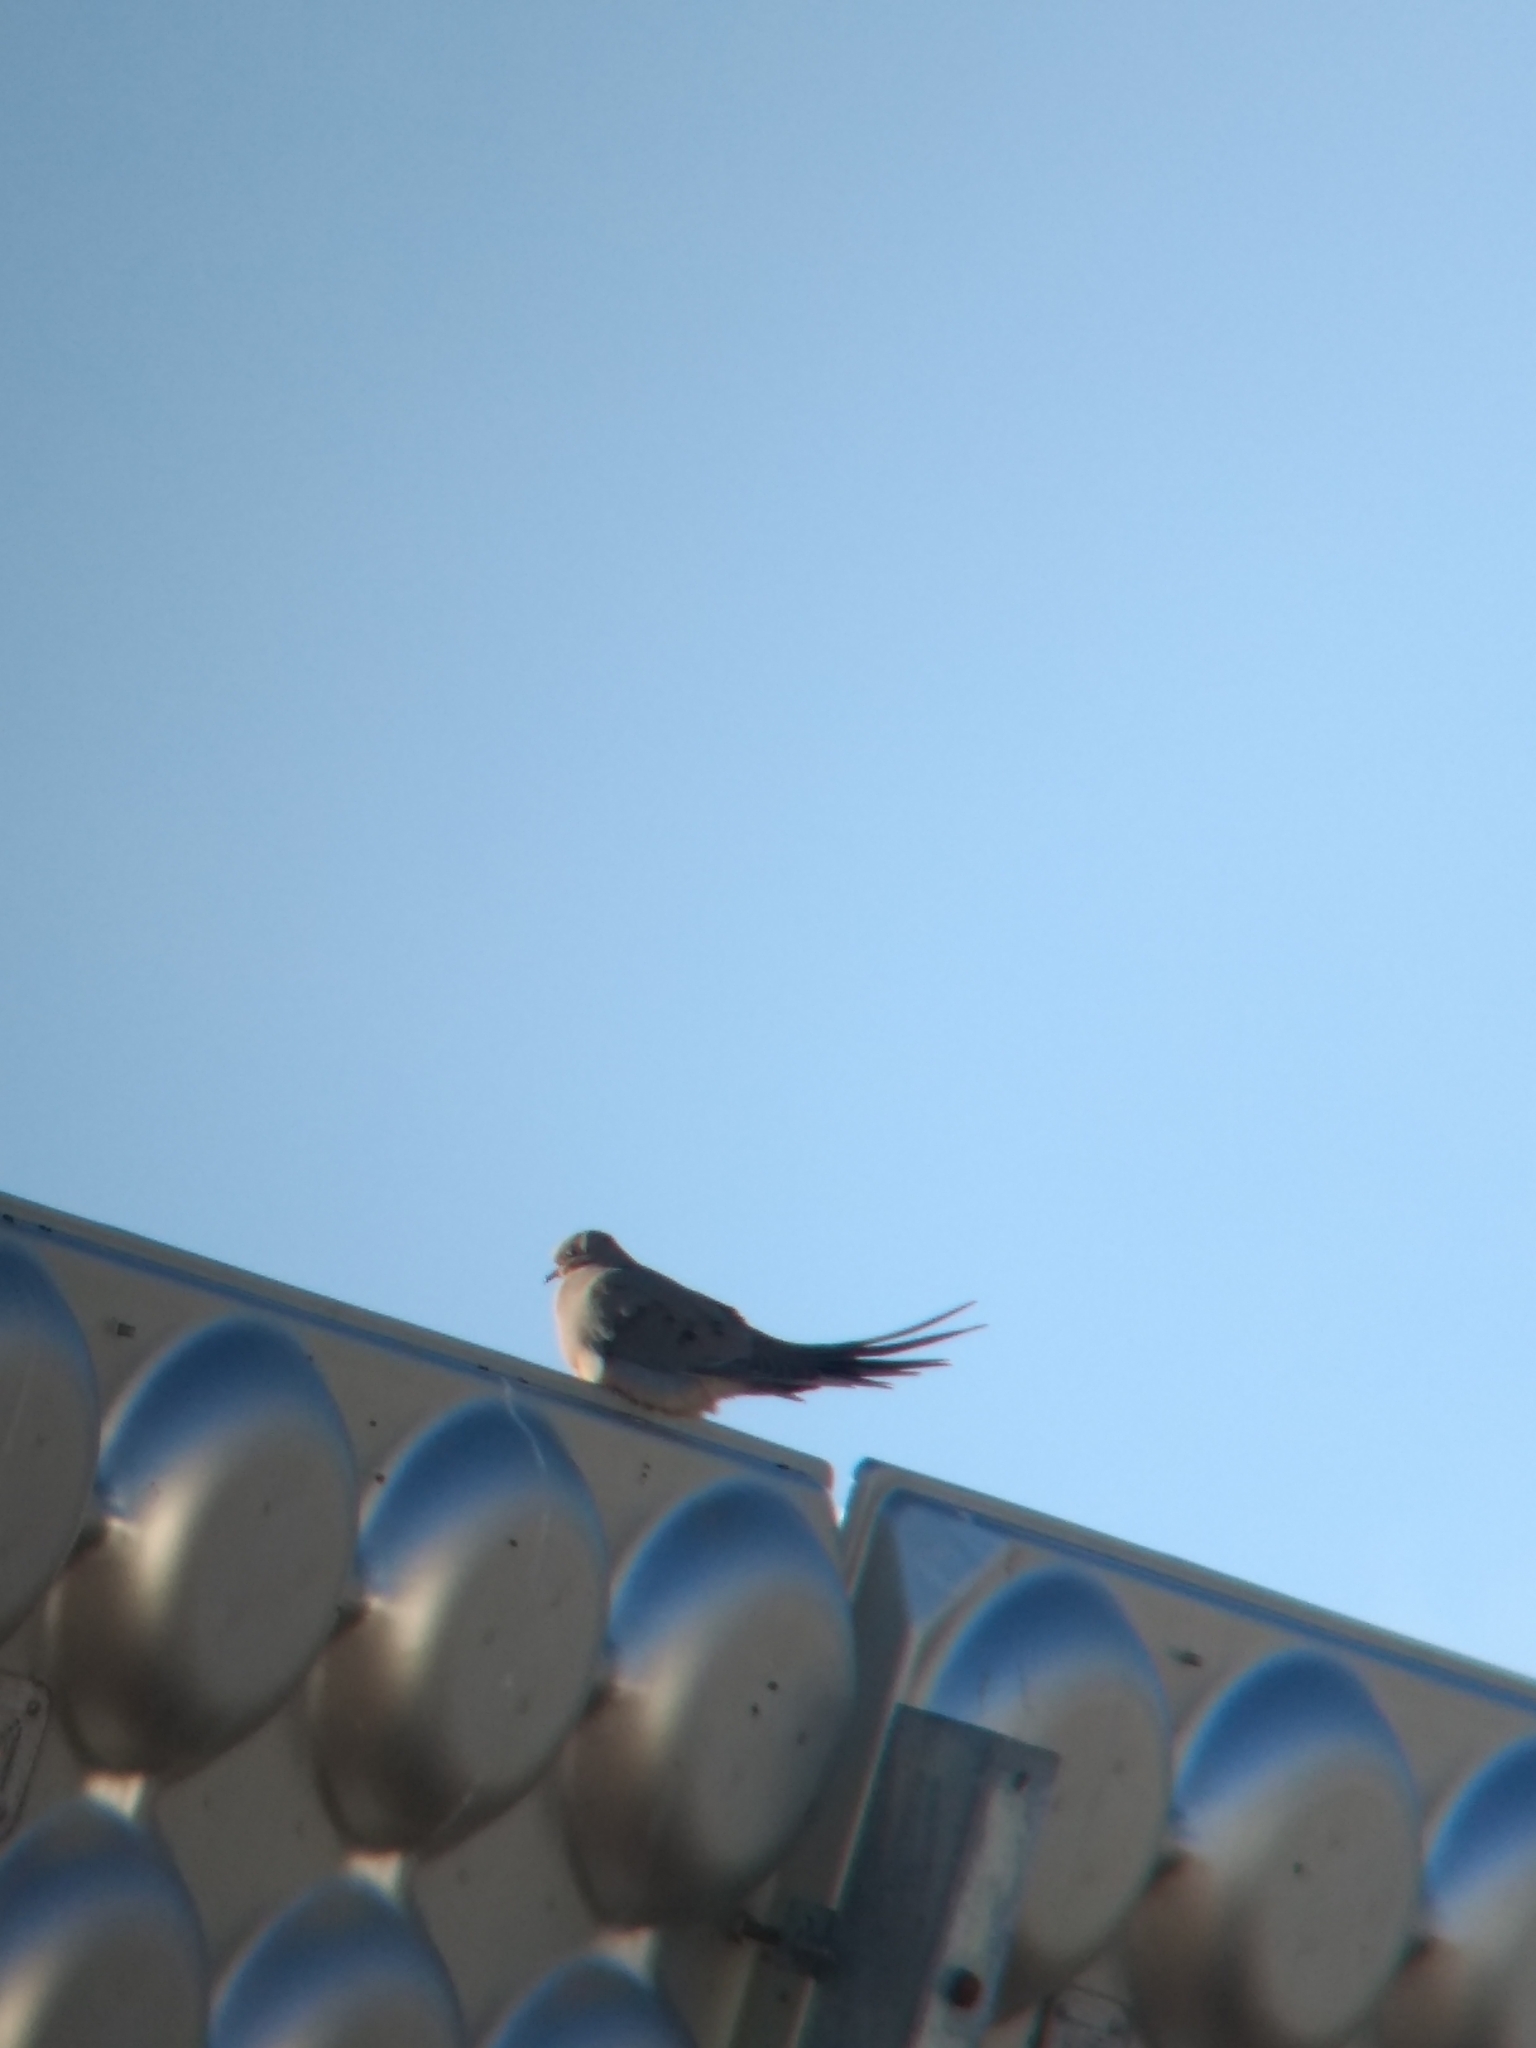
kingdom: Animalia
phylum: Chordata
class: Aves
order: Columbiformes
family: Columbidae
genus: Zenaida
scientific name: Zenaida macroura
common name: Mourning dove
